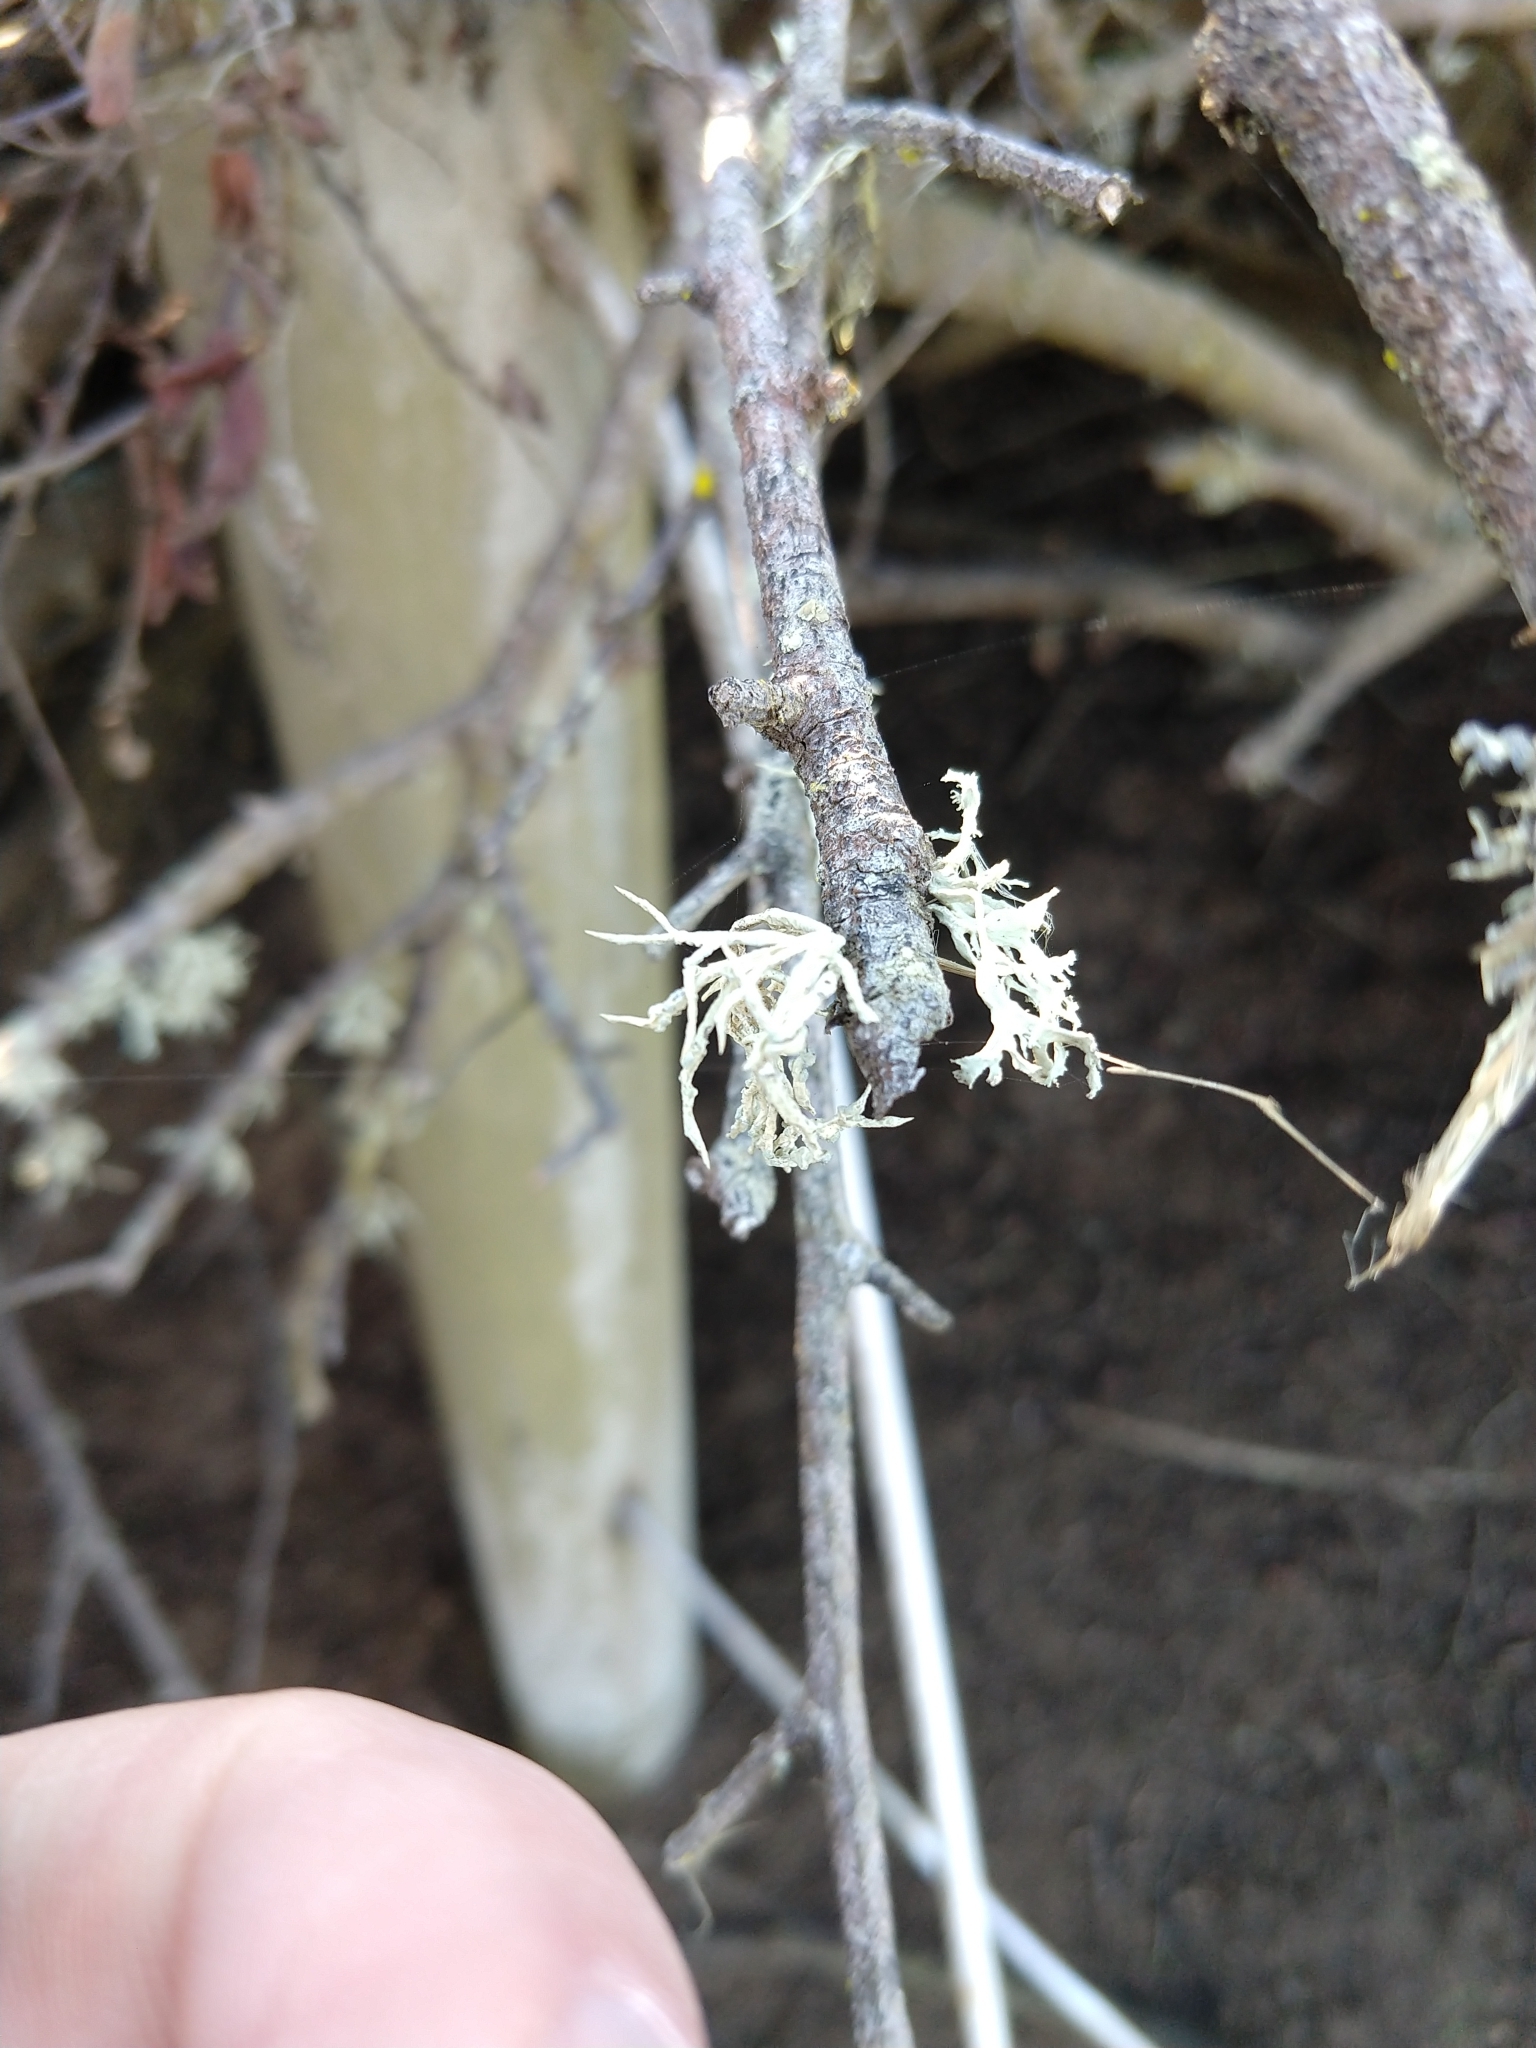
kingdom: Fungi
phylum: Ascomycota
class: Lecanoromycetes
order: Lecanorales
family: Ramalinaceae
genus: Niebla
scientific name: Niebla cephalota
